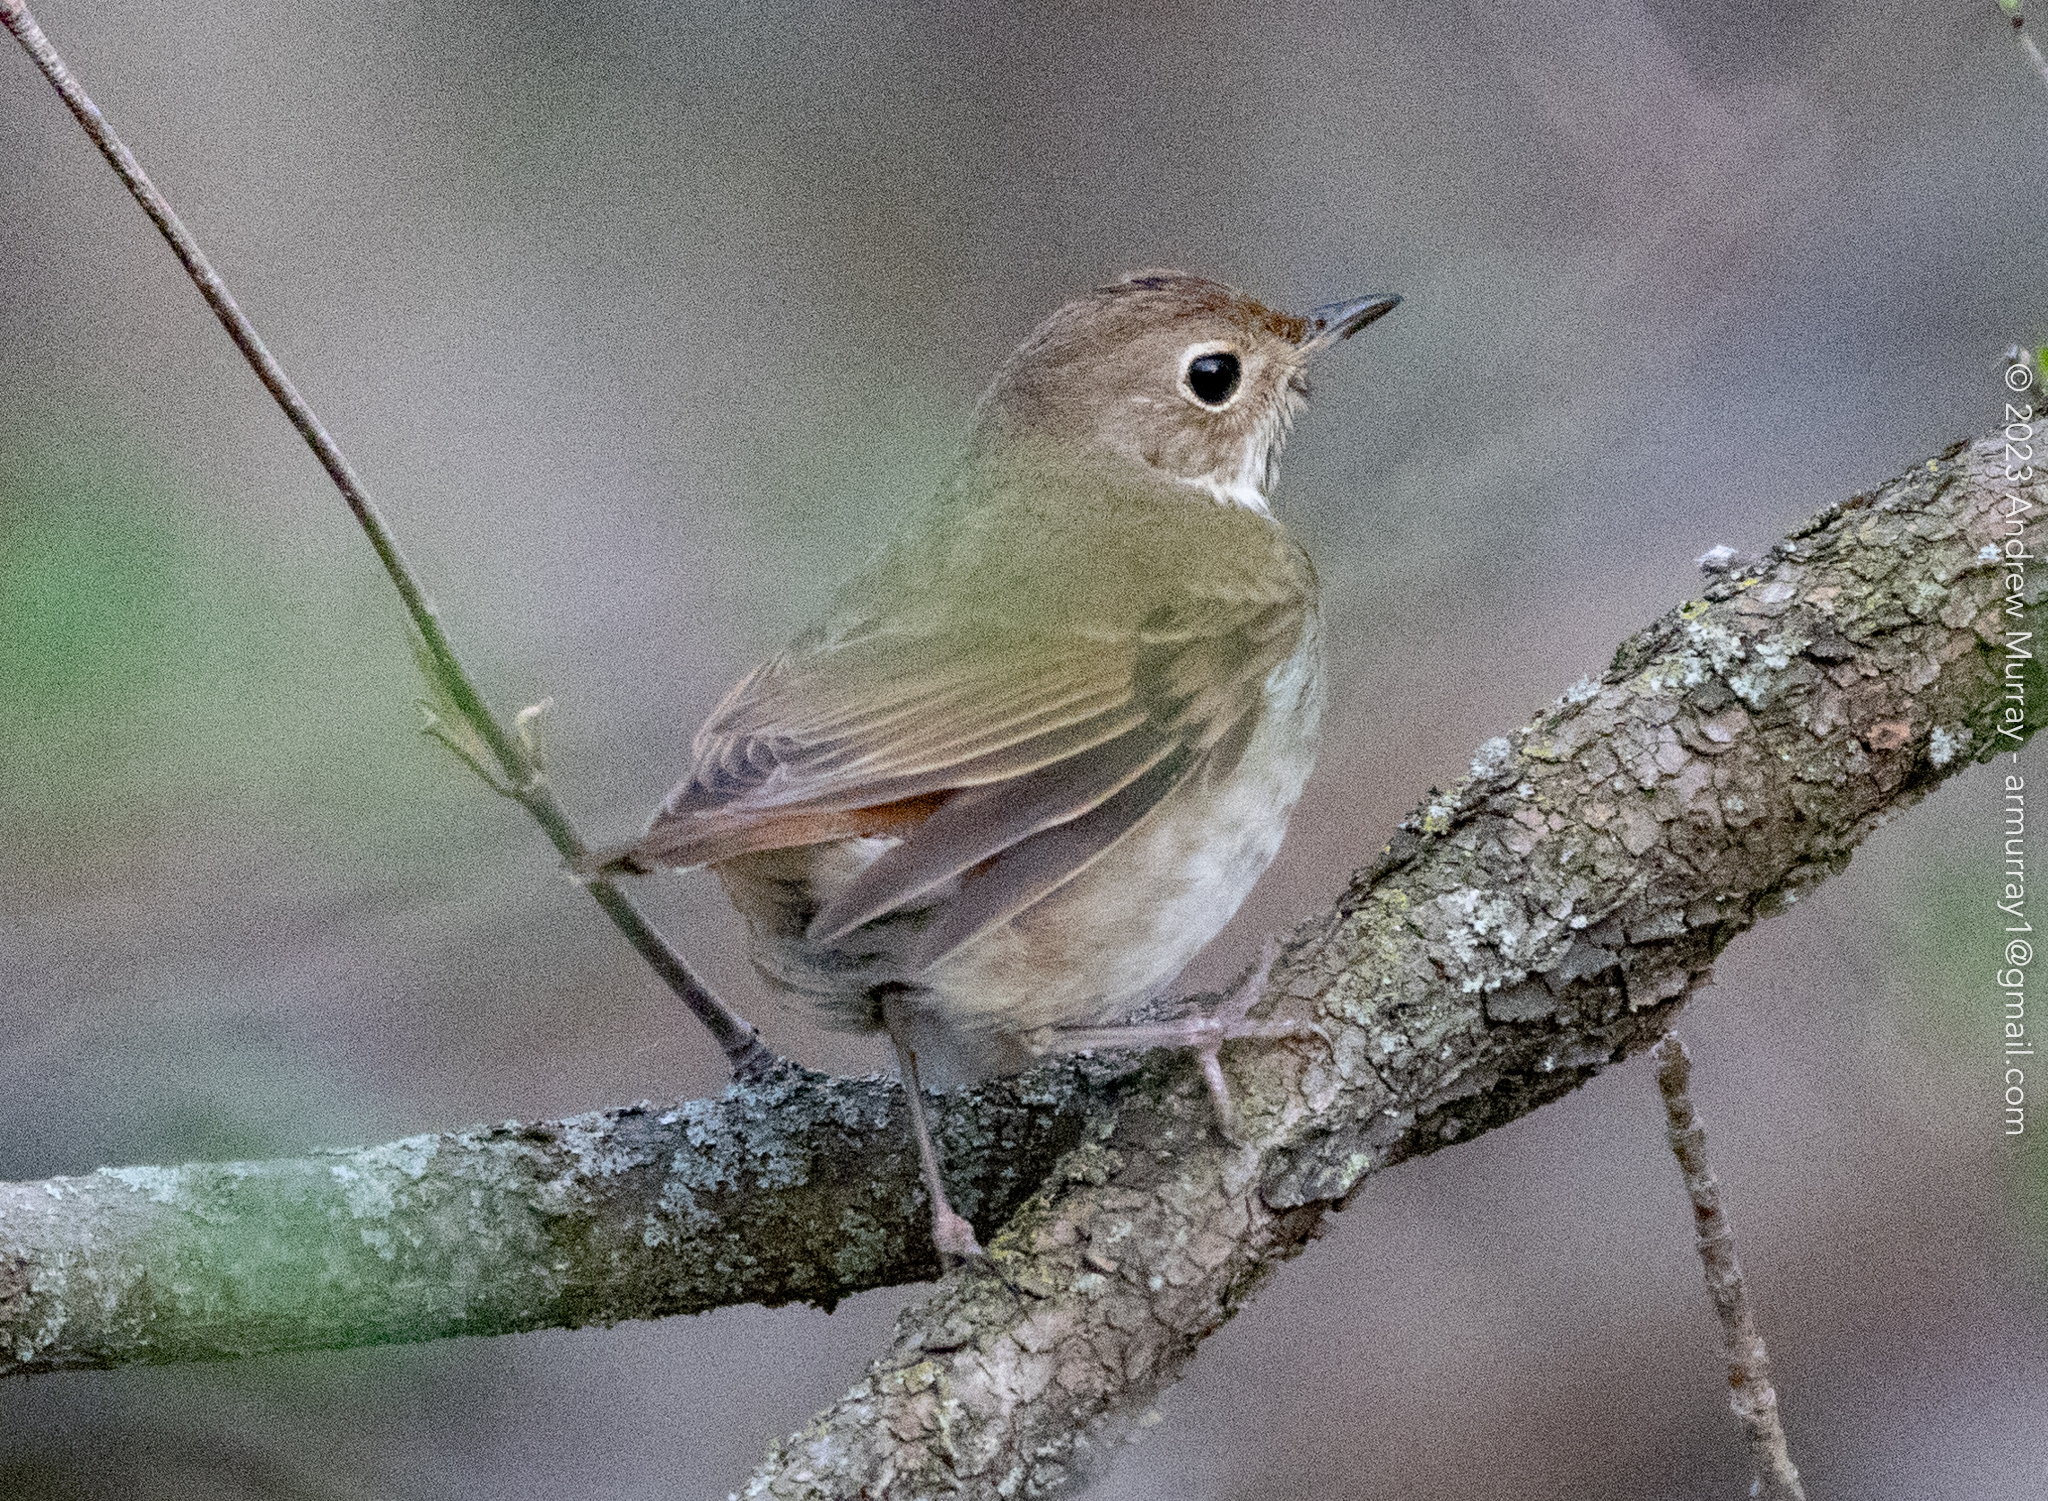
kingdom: Animalia
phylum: Chordata
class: Aves
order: Passeriformes
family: Turdidae
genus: Catharus
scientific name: Catharus guttatus
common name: Hermit thrush
